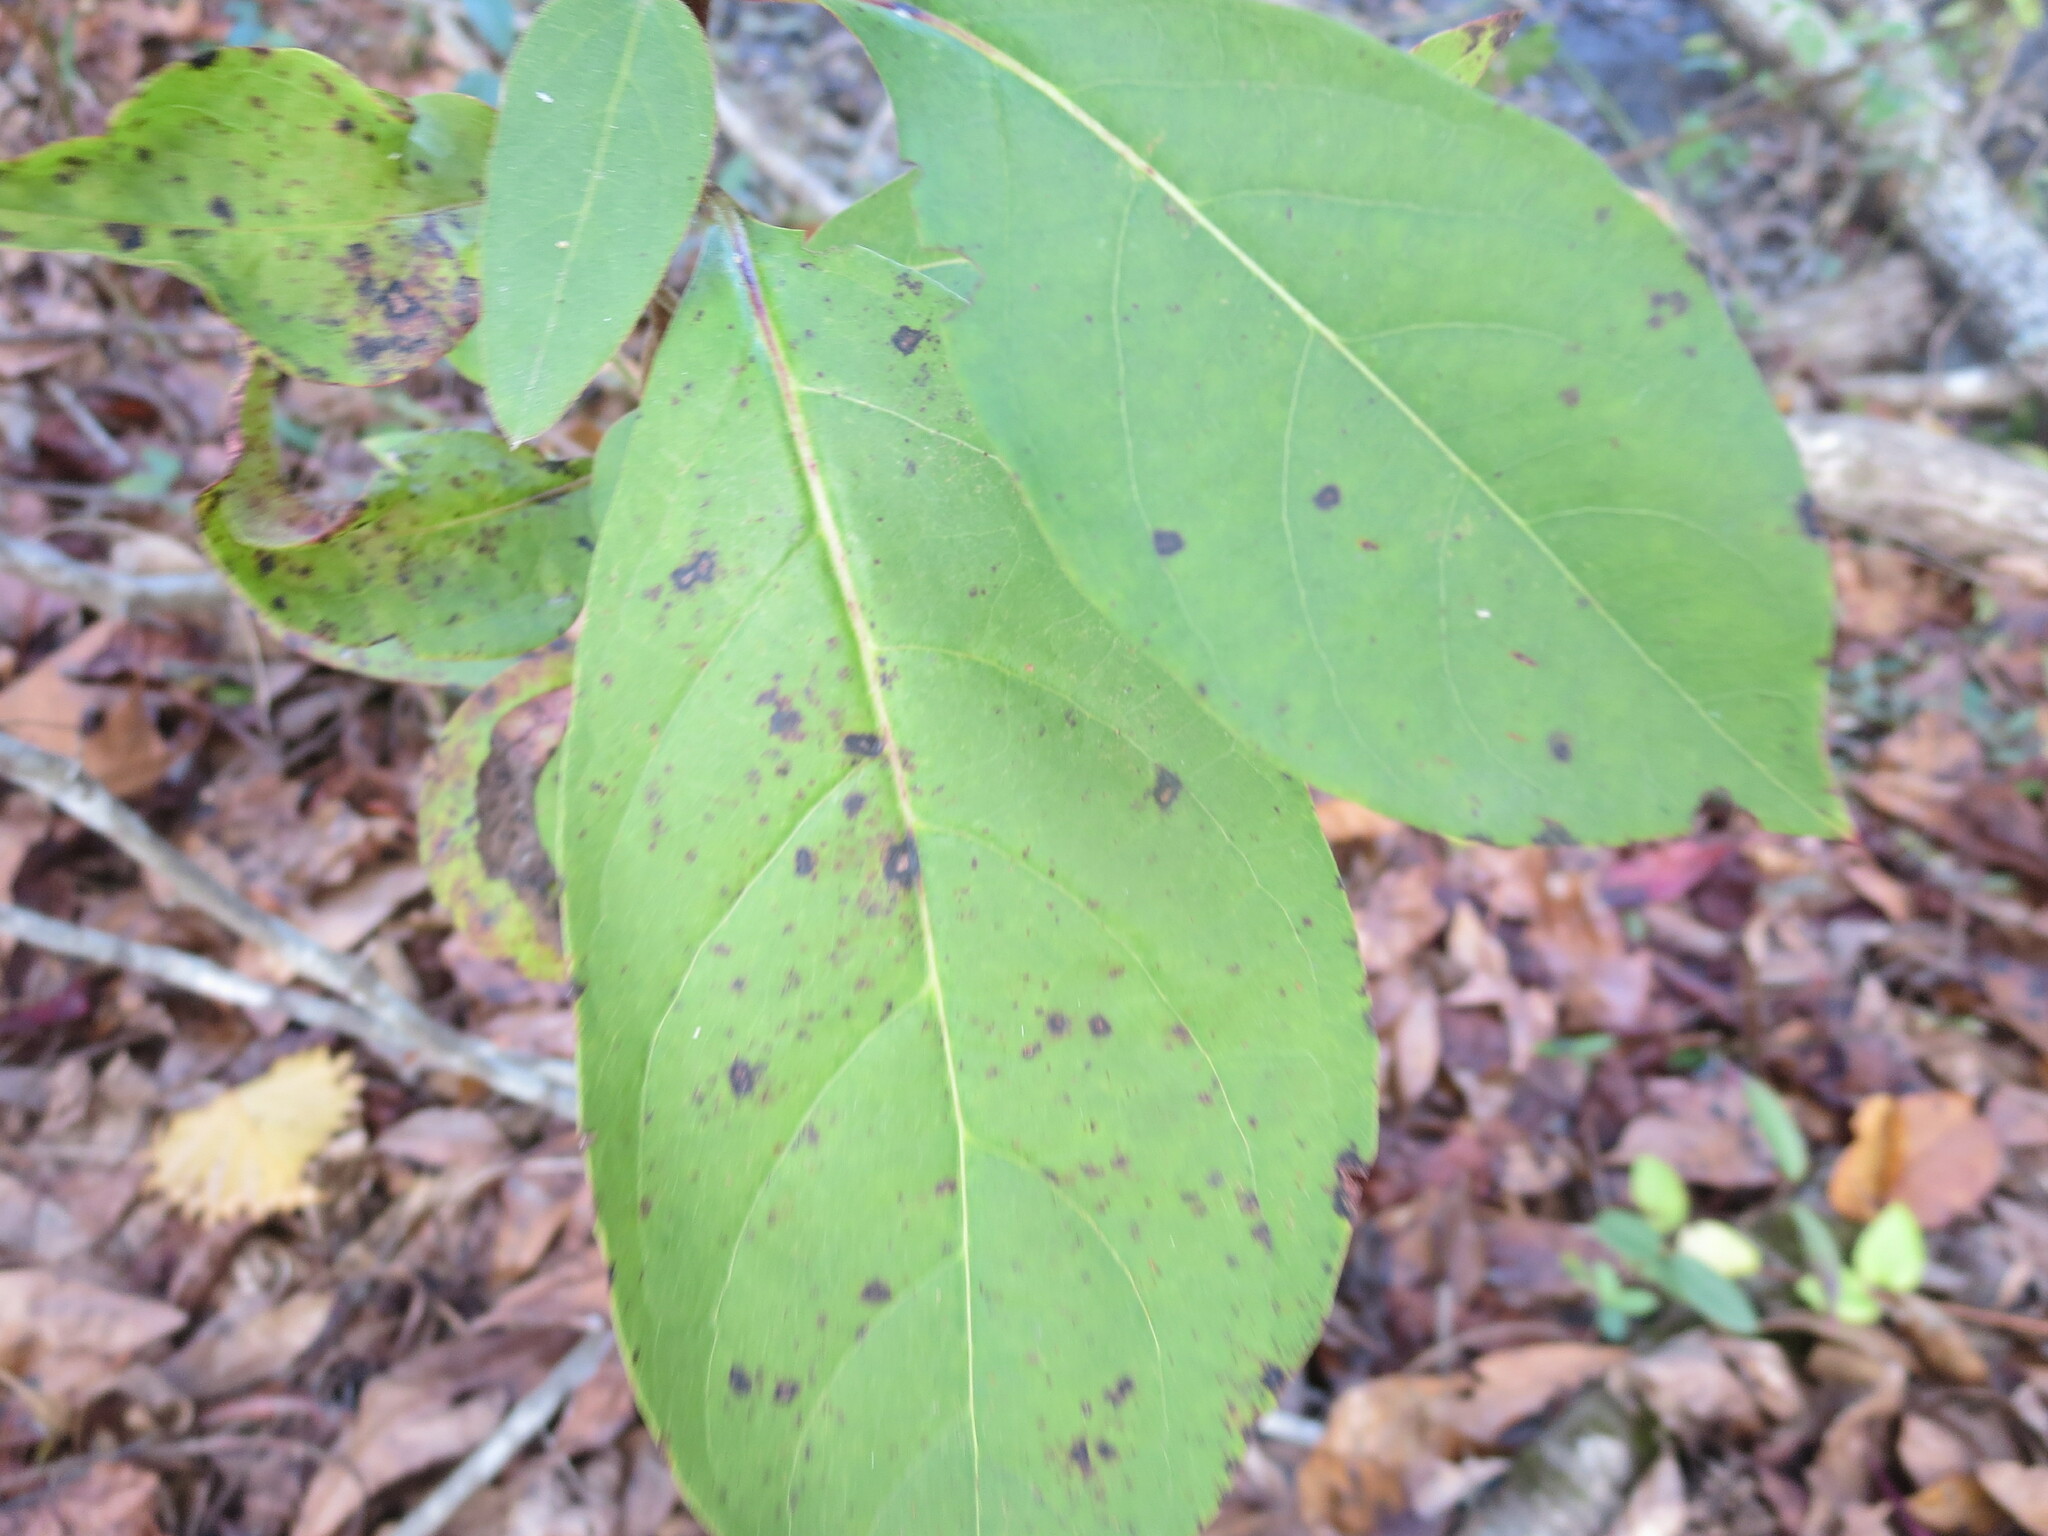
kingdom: Plantae
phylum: Tracheophyta
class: Magnoliopsida
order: Ericales
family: Ebenaceae
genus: Diospyros
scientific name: Diospyros virginiana
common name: Persimmon
